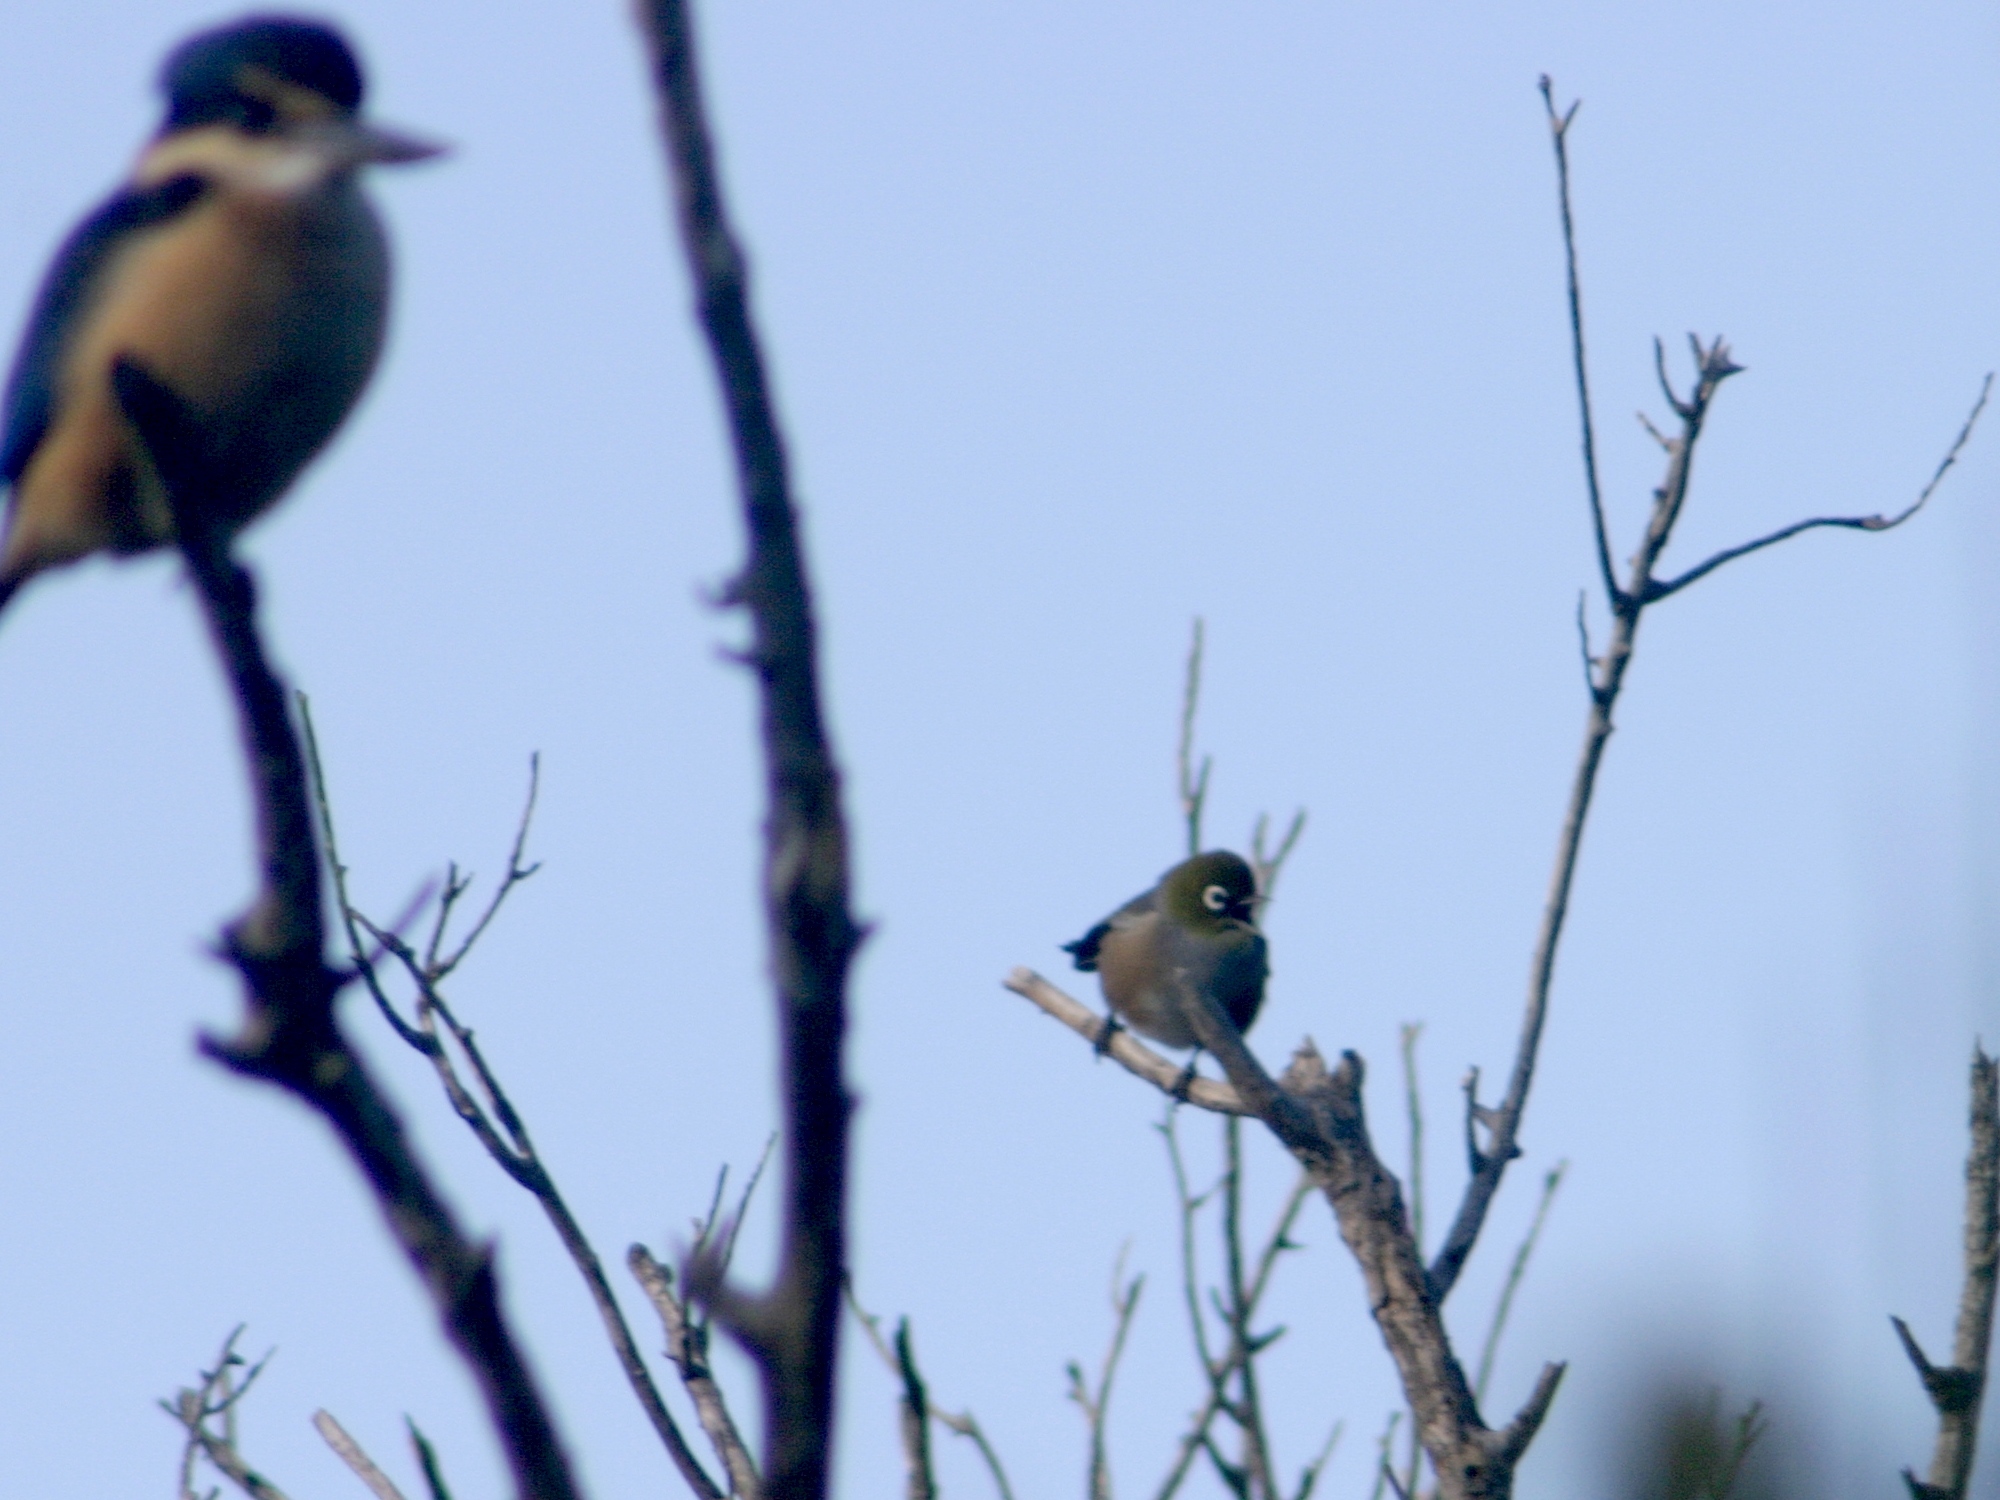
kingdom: Animalia
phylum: Chordata
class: Aves
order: Passeriformes
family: Zosteropidae
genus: Zosterops
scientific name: Zosterops lateralis
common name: Silvereye
